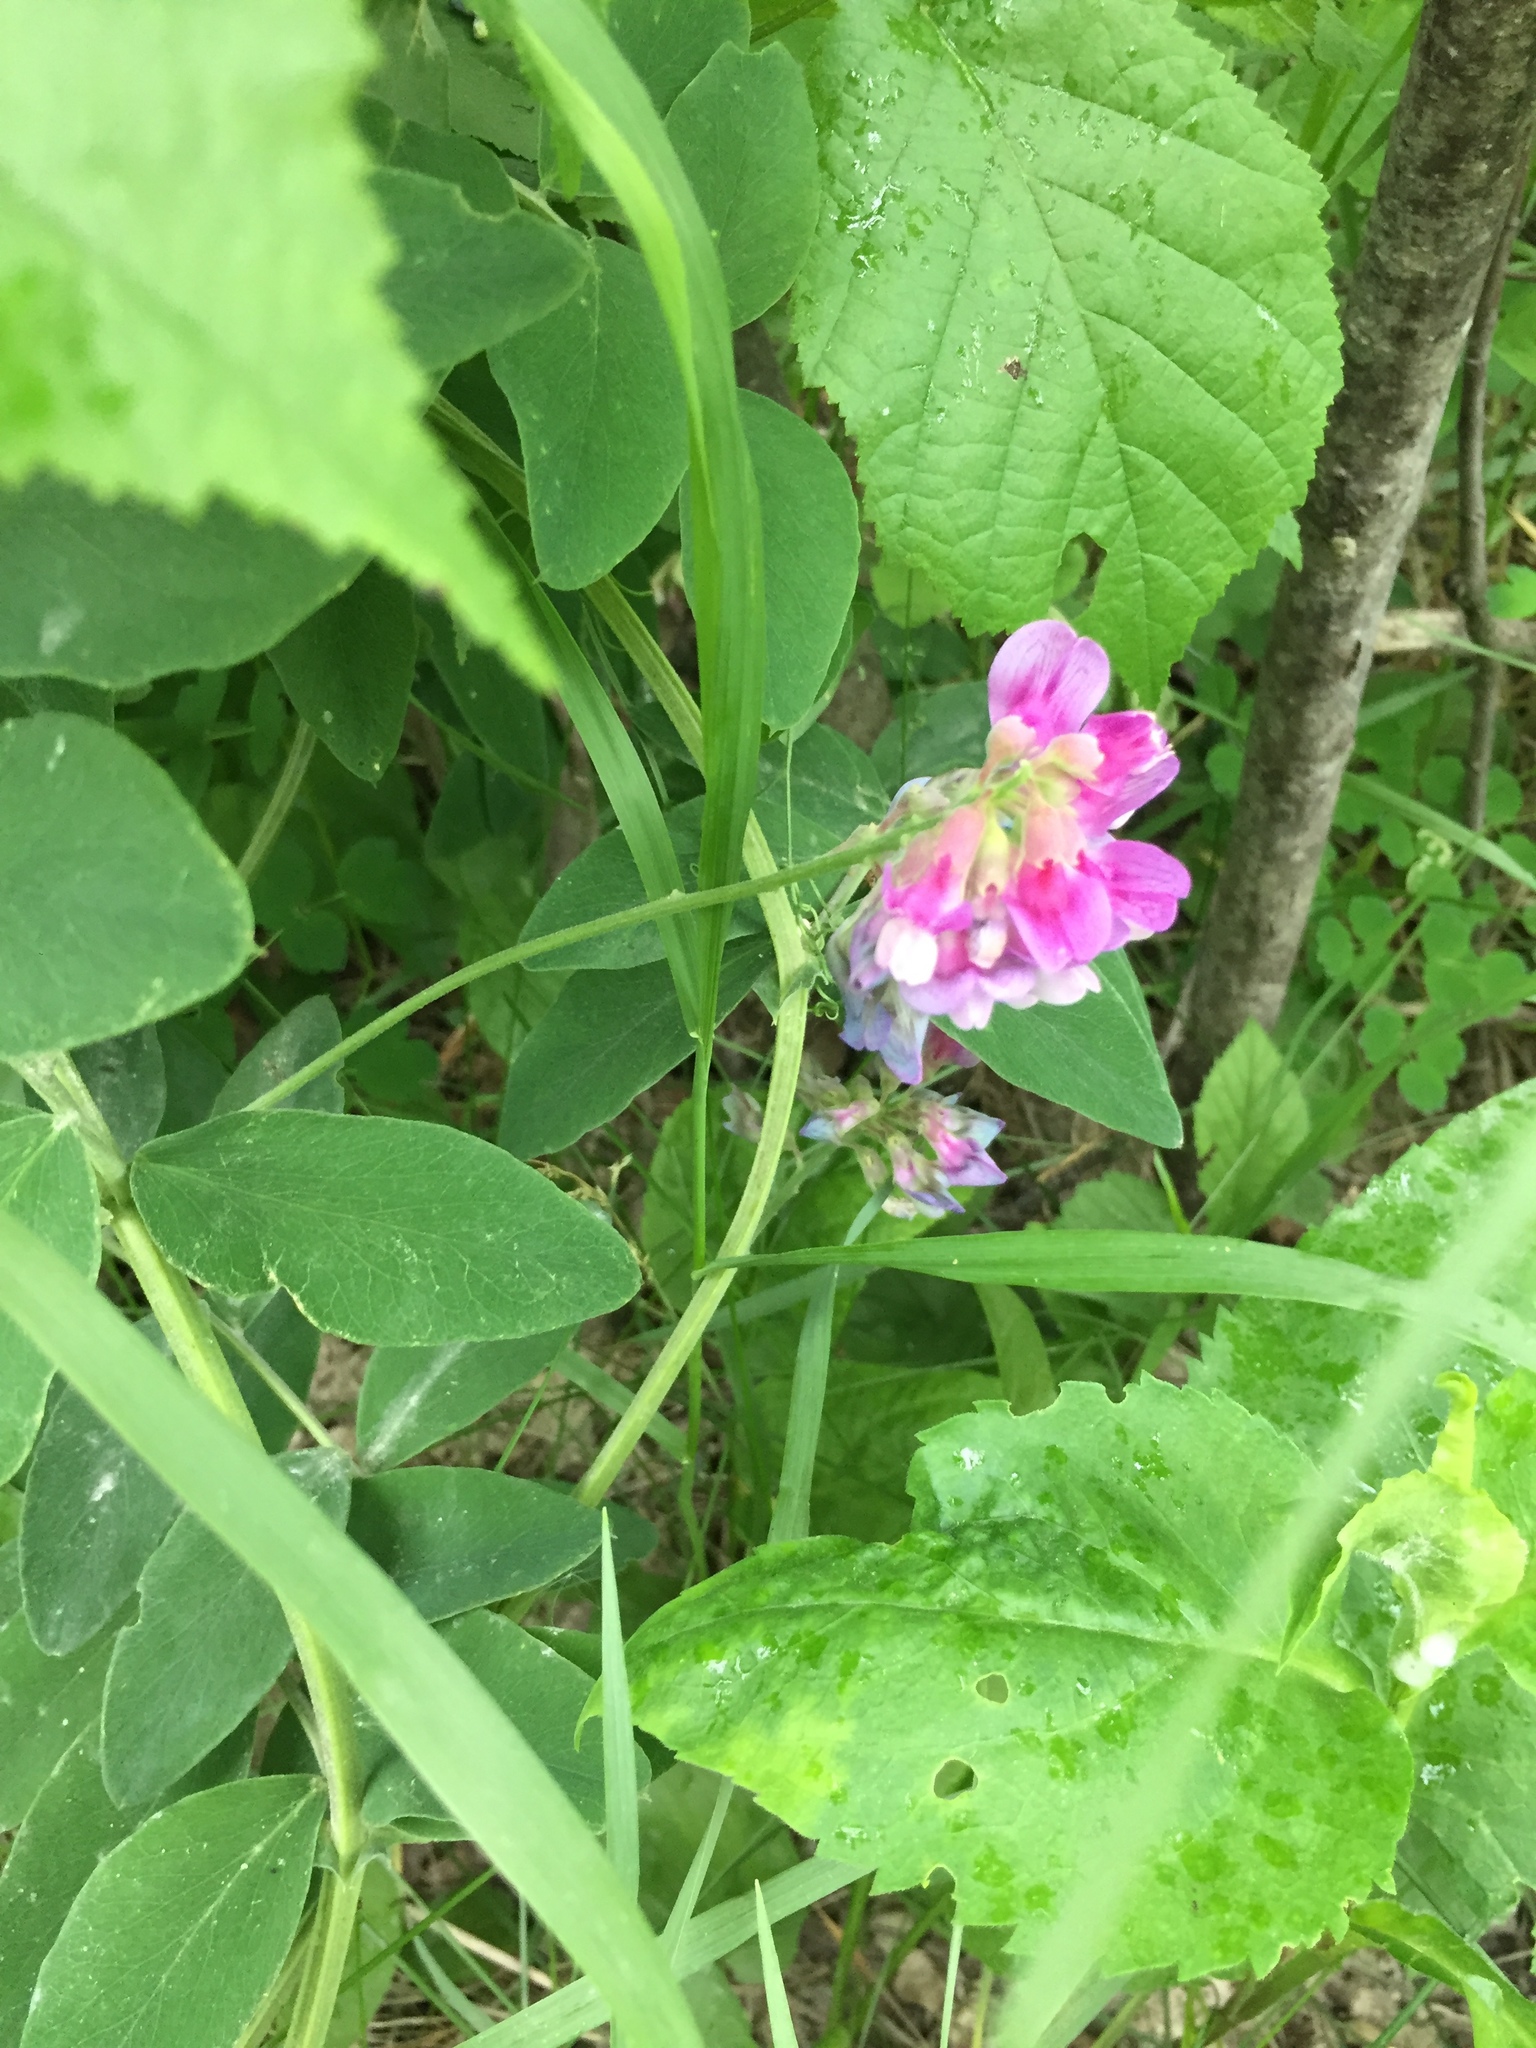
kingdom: Plantae
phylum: Tracheophyta
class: Magnoliopsida
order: Fabales
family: Fabaceae
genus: Lathyrus
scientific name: Lathyrus venosus
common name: Forest-pea
